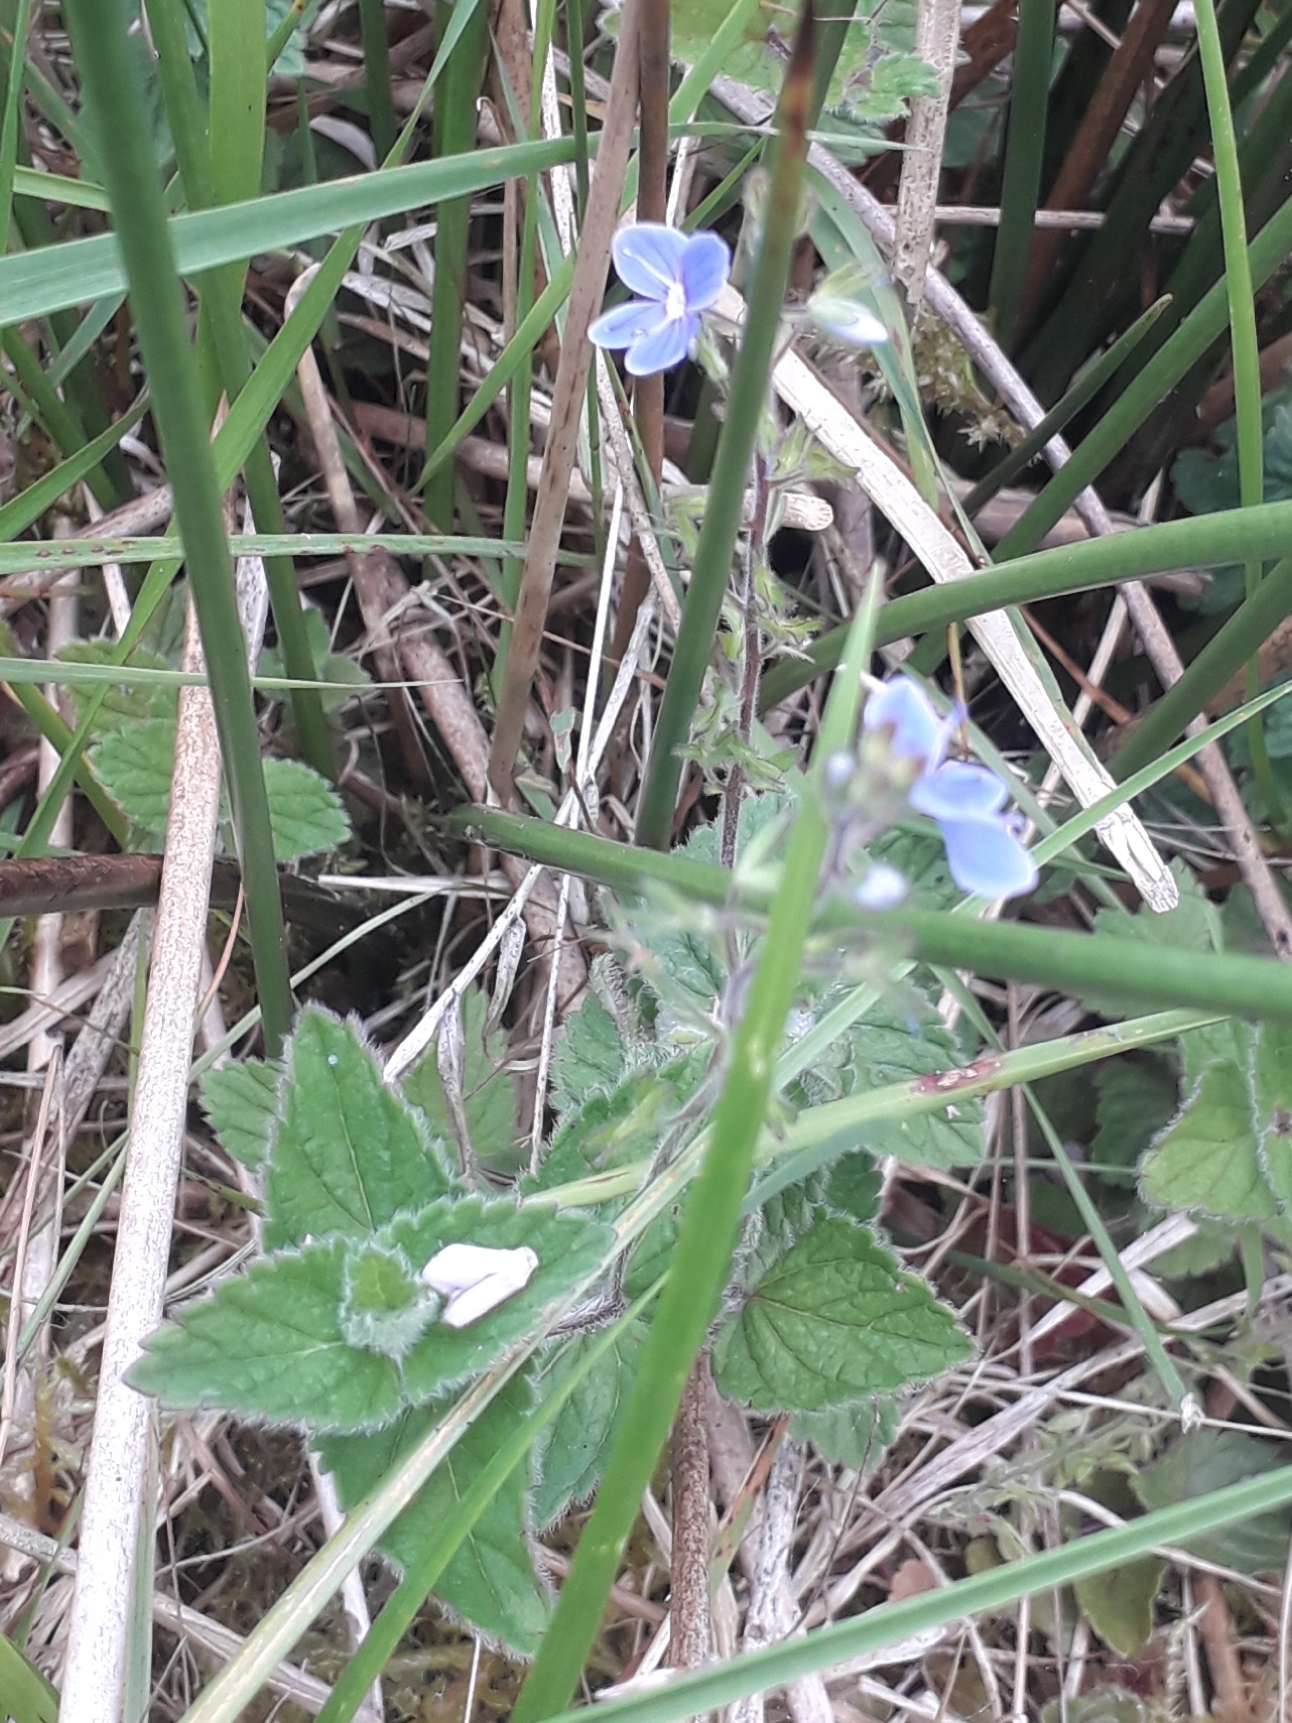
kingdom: Plantae
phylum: Tracheophyta
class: Magnoliopsida
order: Lamiales
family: Plantaginaceae
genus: Veronica
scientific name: Veronica chamaedrys
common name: Germander speedwell
